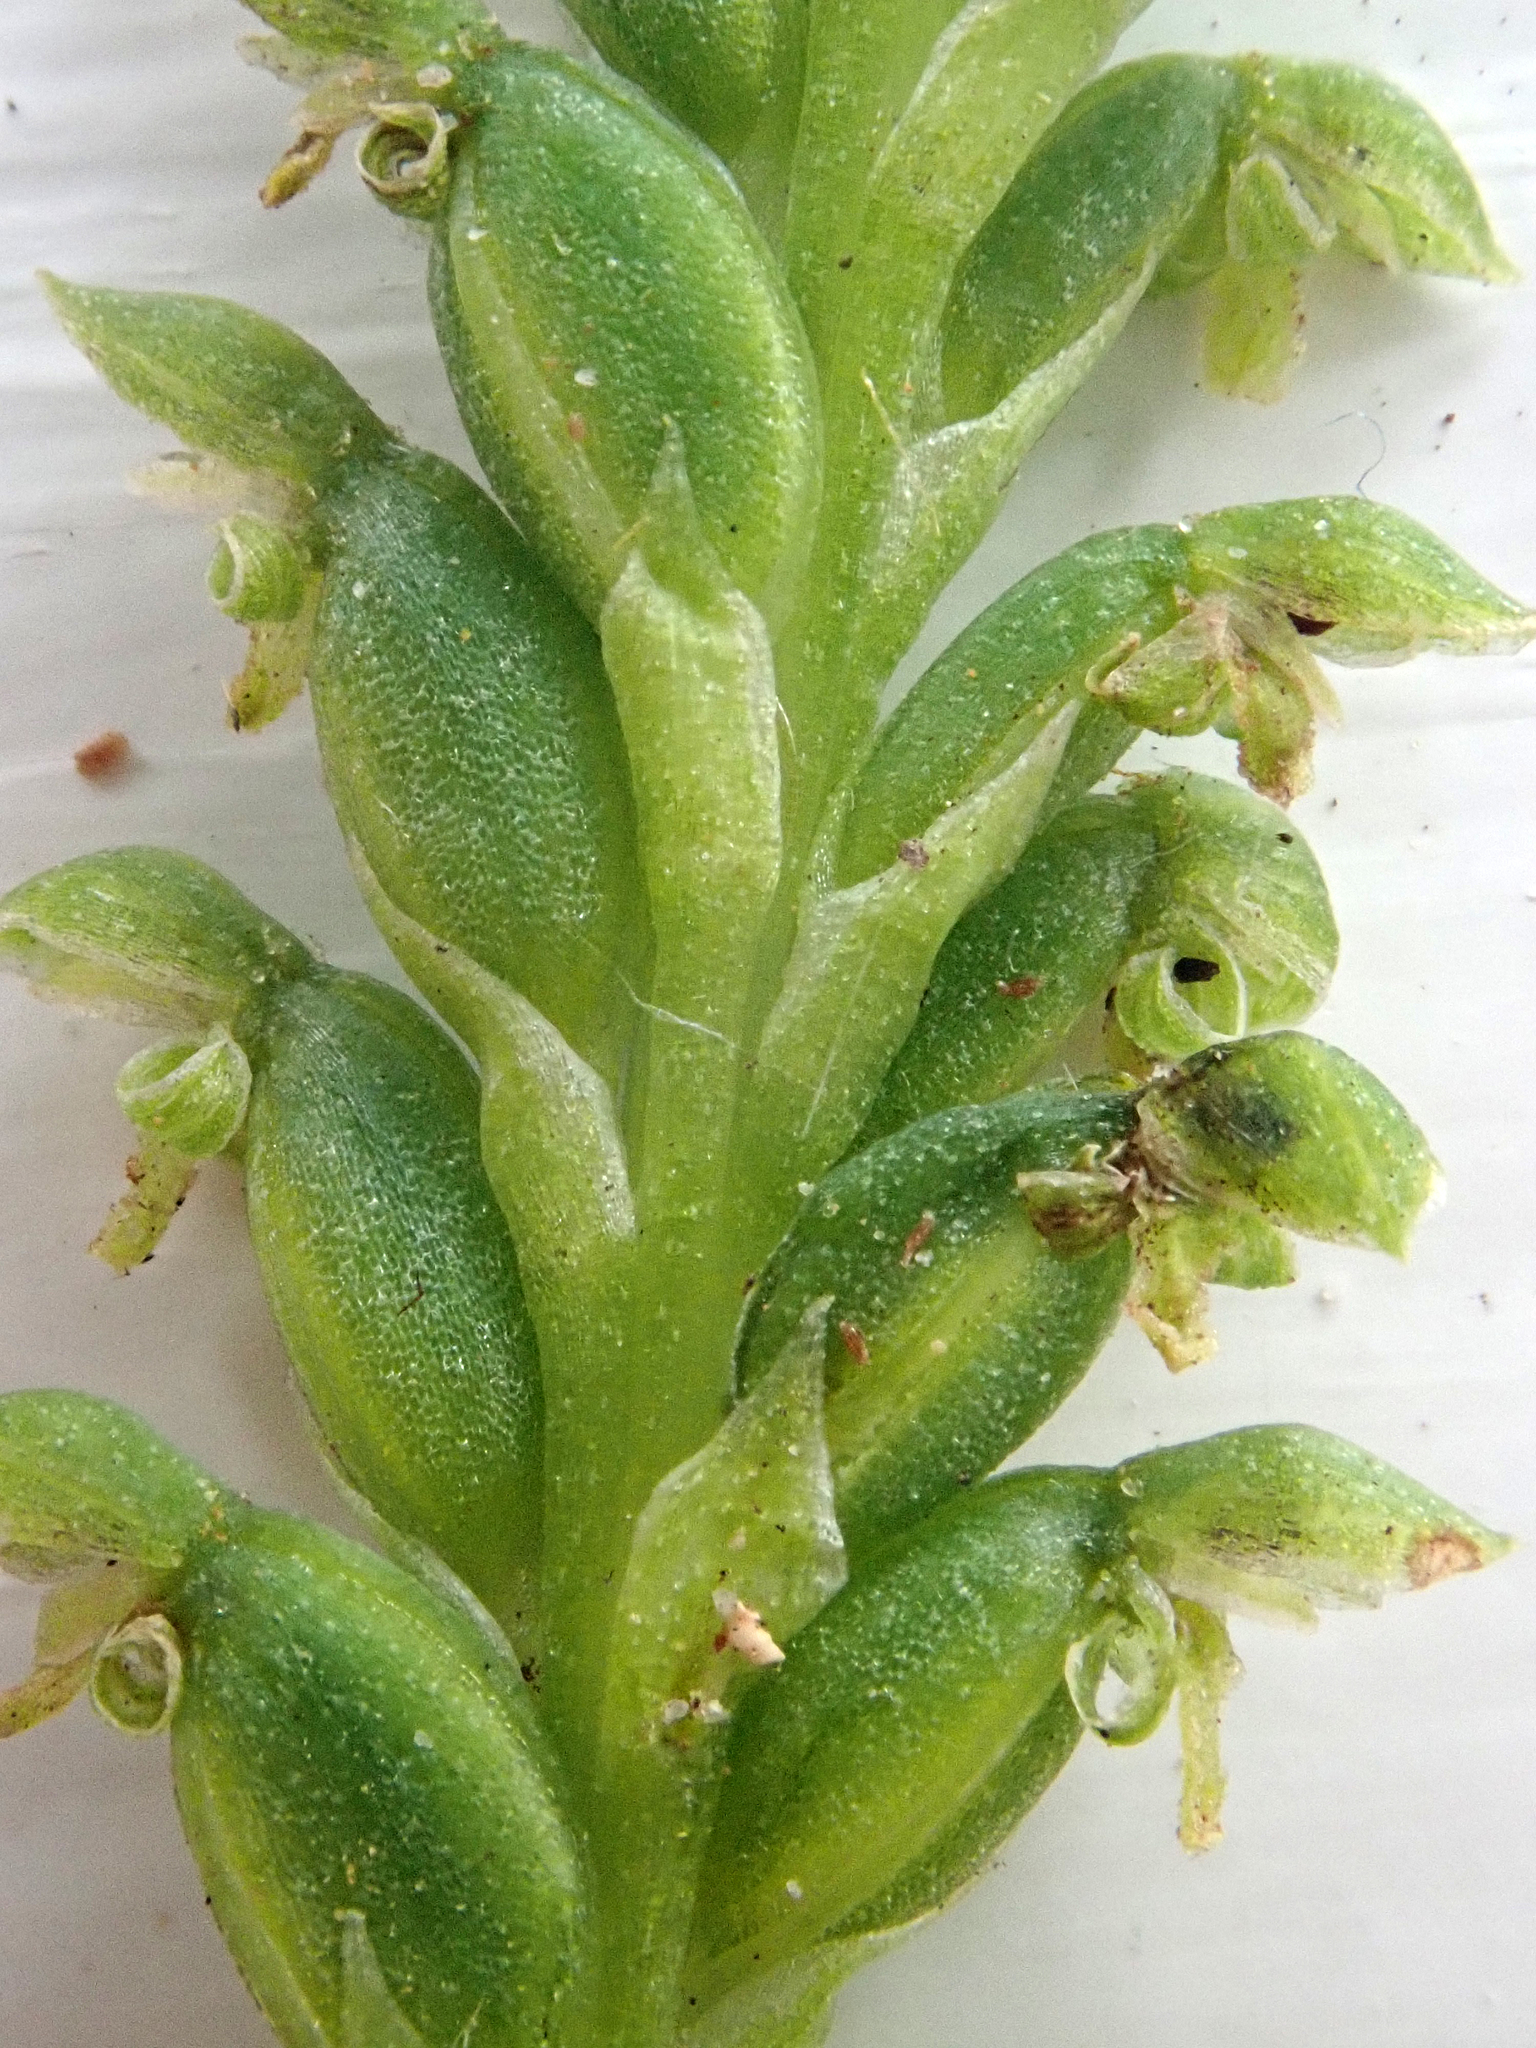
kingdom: Plantae
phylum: Tracheophyta
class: Liliopsida
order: Asparagales
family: Orchidaceae
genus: Microtis
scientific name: Microtis unifolia
